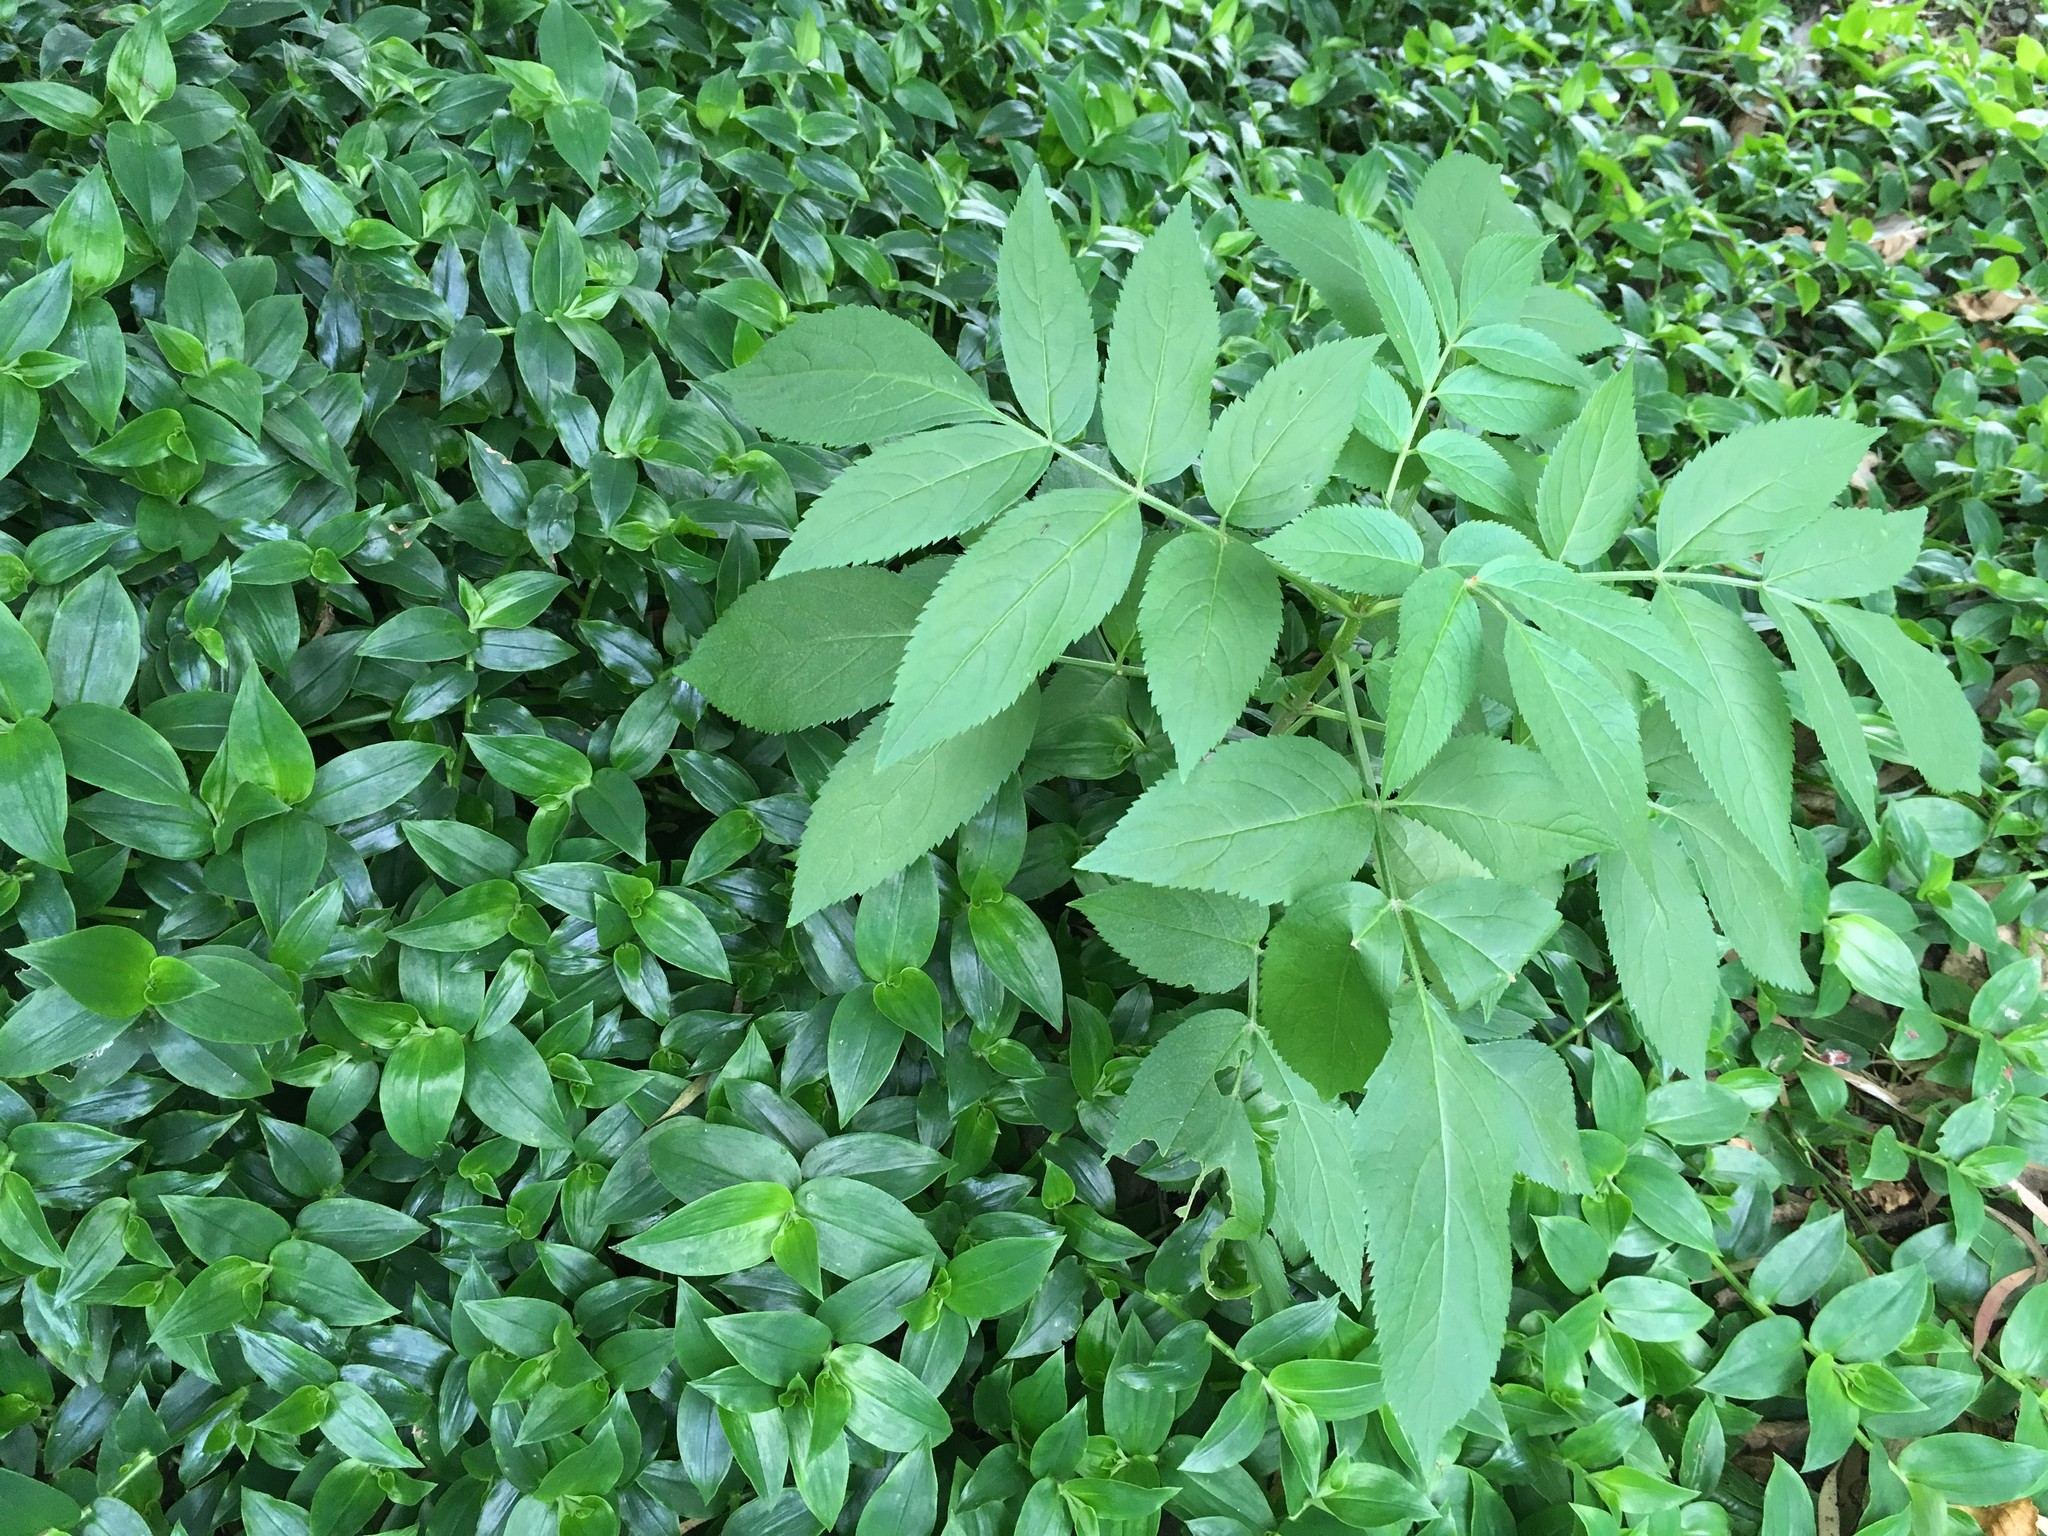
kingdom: Plantae
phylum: Tracheophyta
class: Magnoliopsida
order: Dipsacales
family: Viburnaceae
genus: Sambucus
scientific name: Sambucus nigra
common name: Elder
